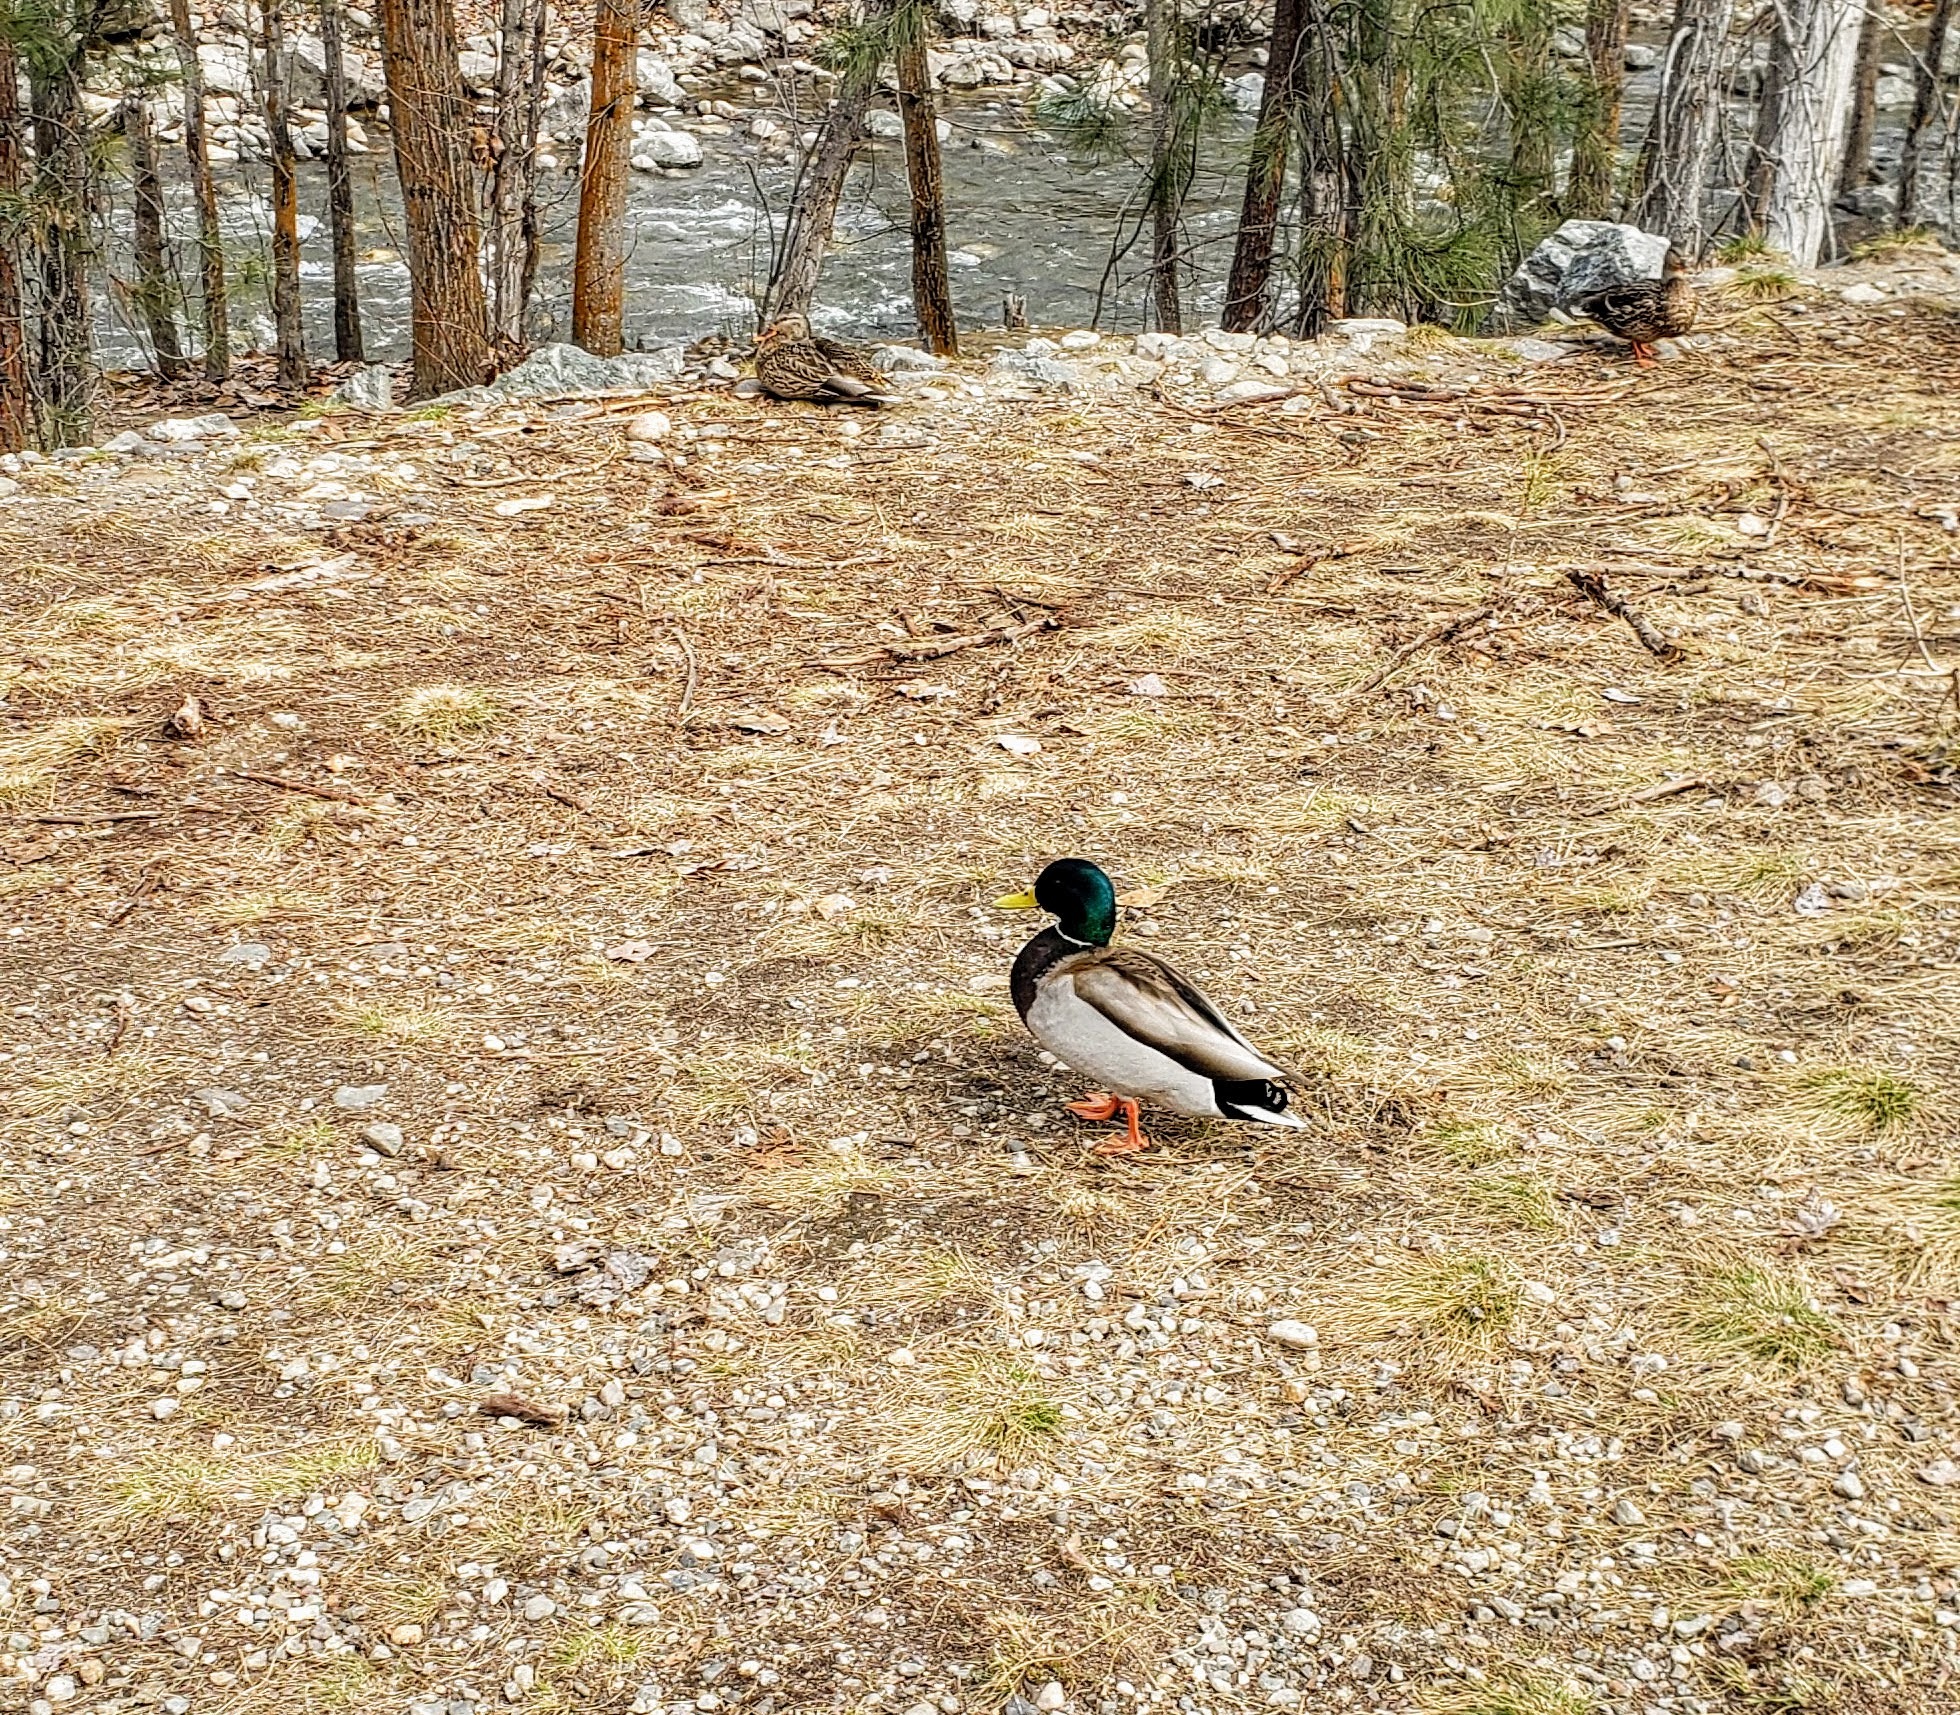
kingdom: Animalia
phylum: Chordata
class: Aves
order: Anseriformes
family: Anatidae
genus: Anas
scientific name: Anas platyrhynchos
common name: Mallard
